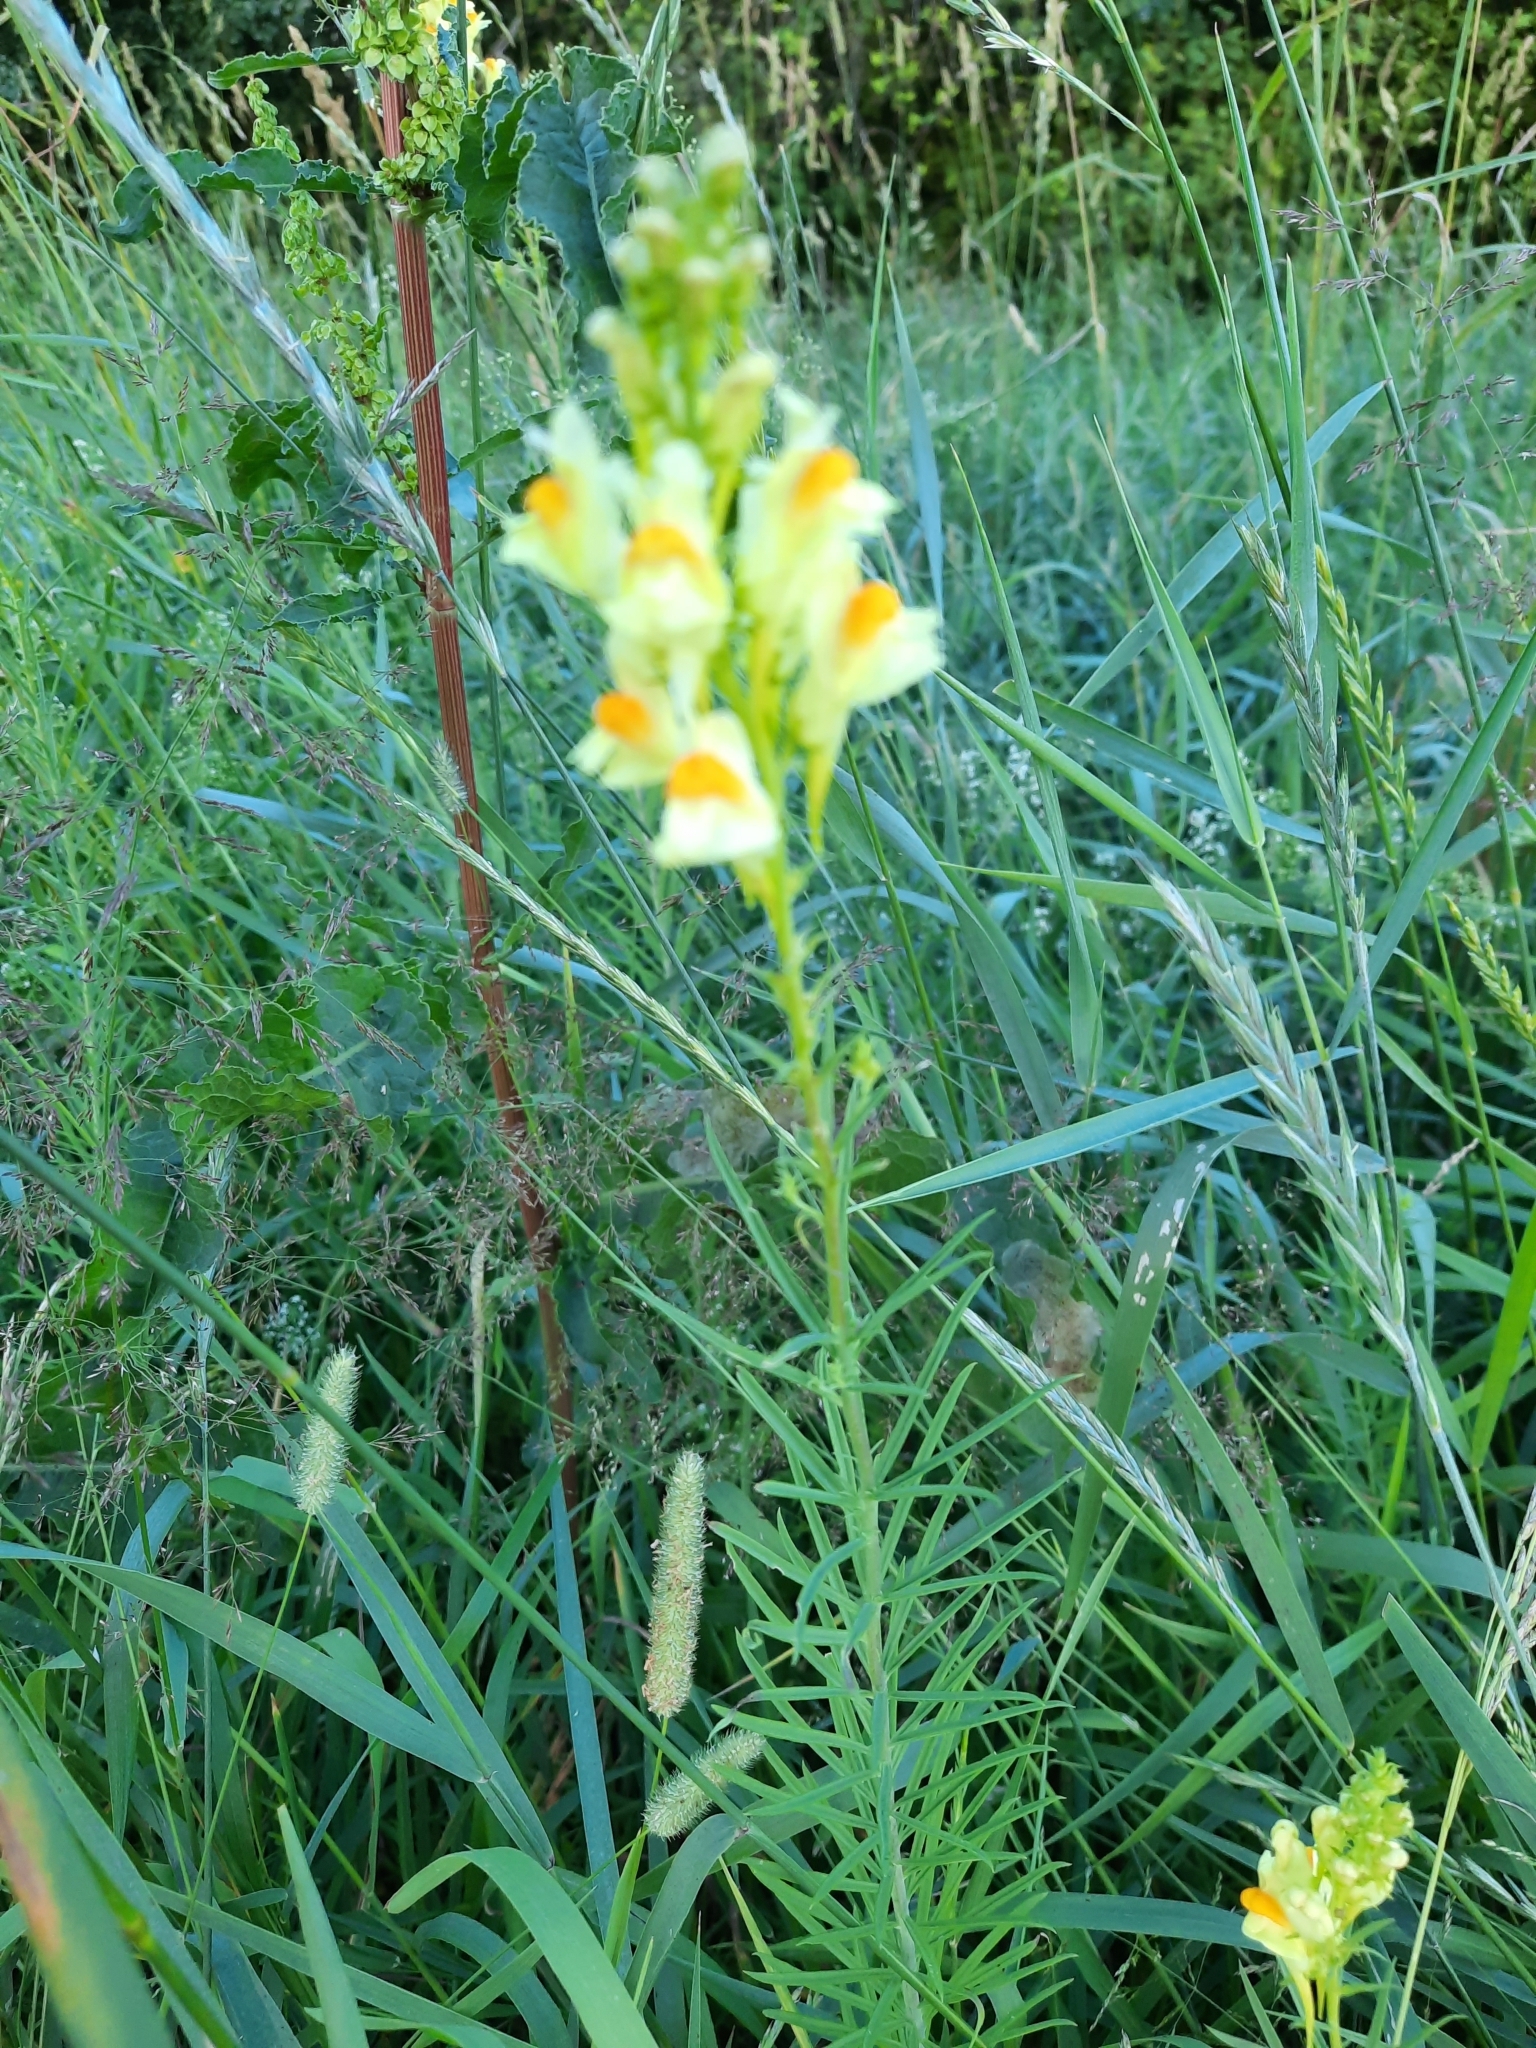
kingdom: Plantae
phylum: Tracheophyta
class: Magnoliopsida
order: Lamiales
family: Plantaginaceae
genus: Linaria
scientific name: Linaria vulgaris
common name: Butter and eggs
